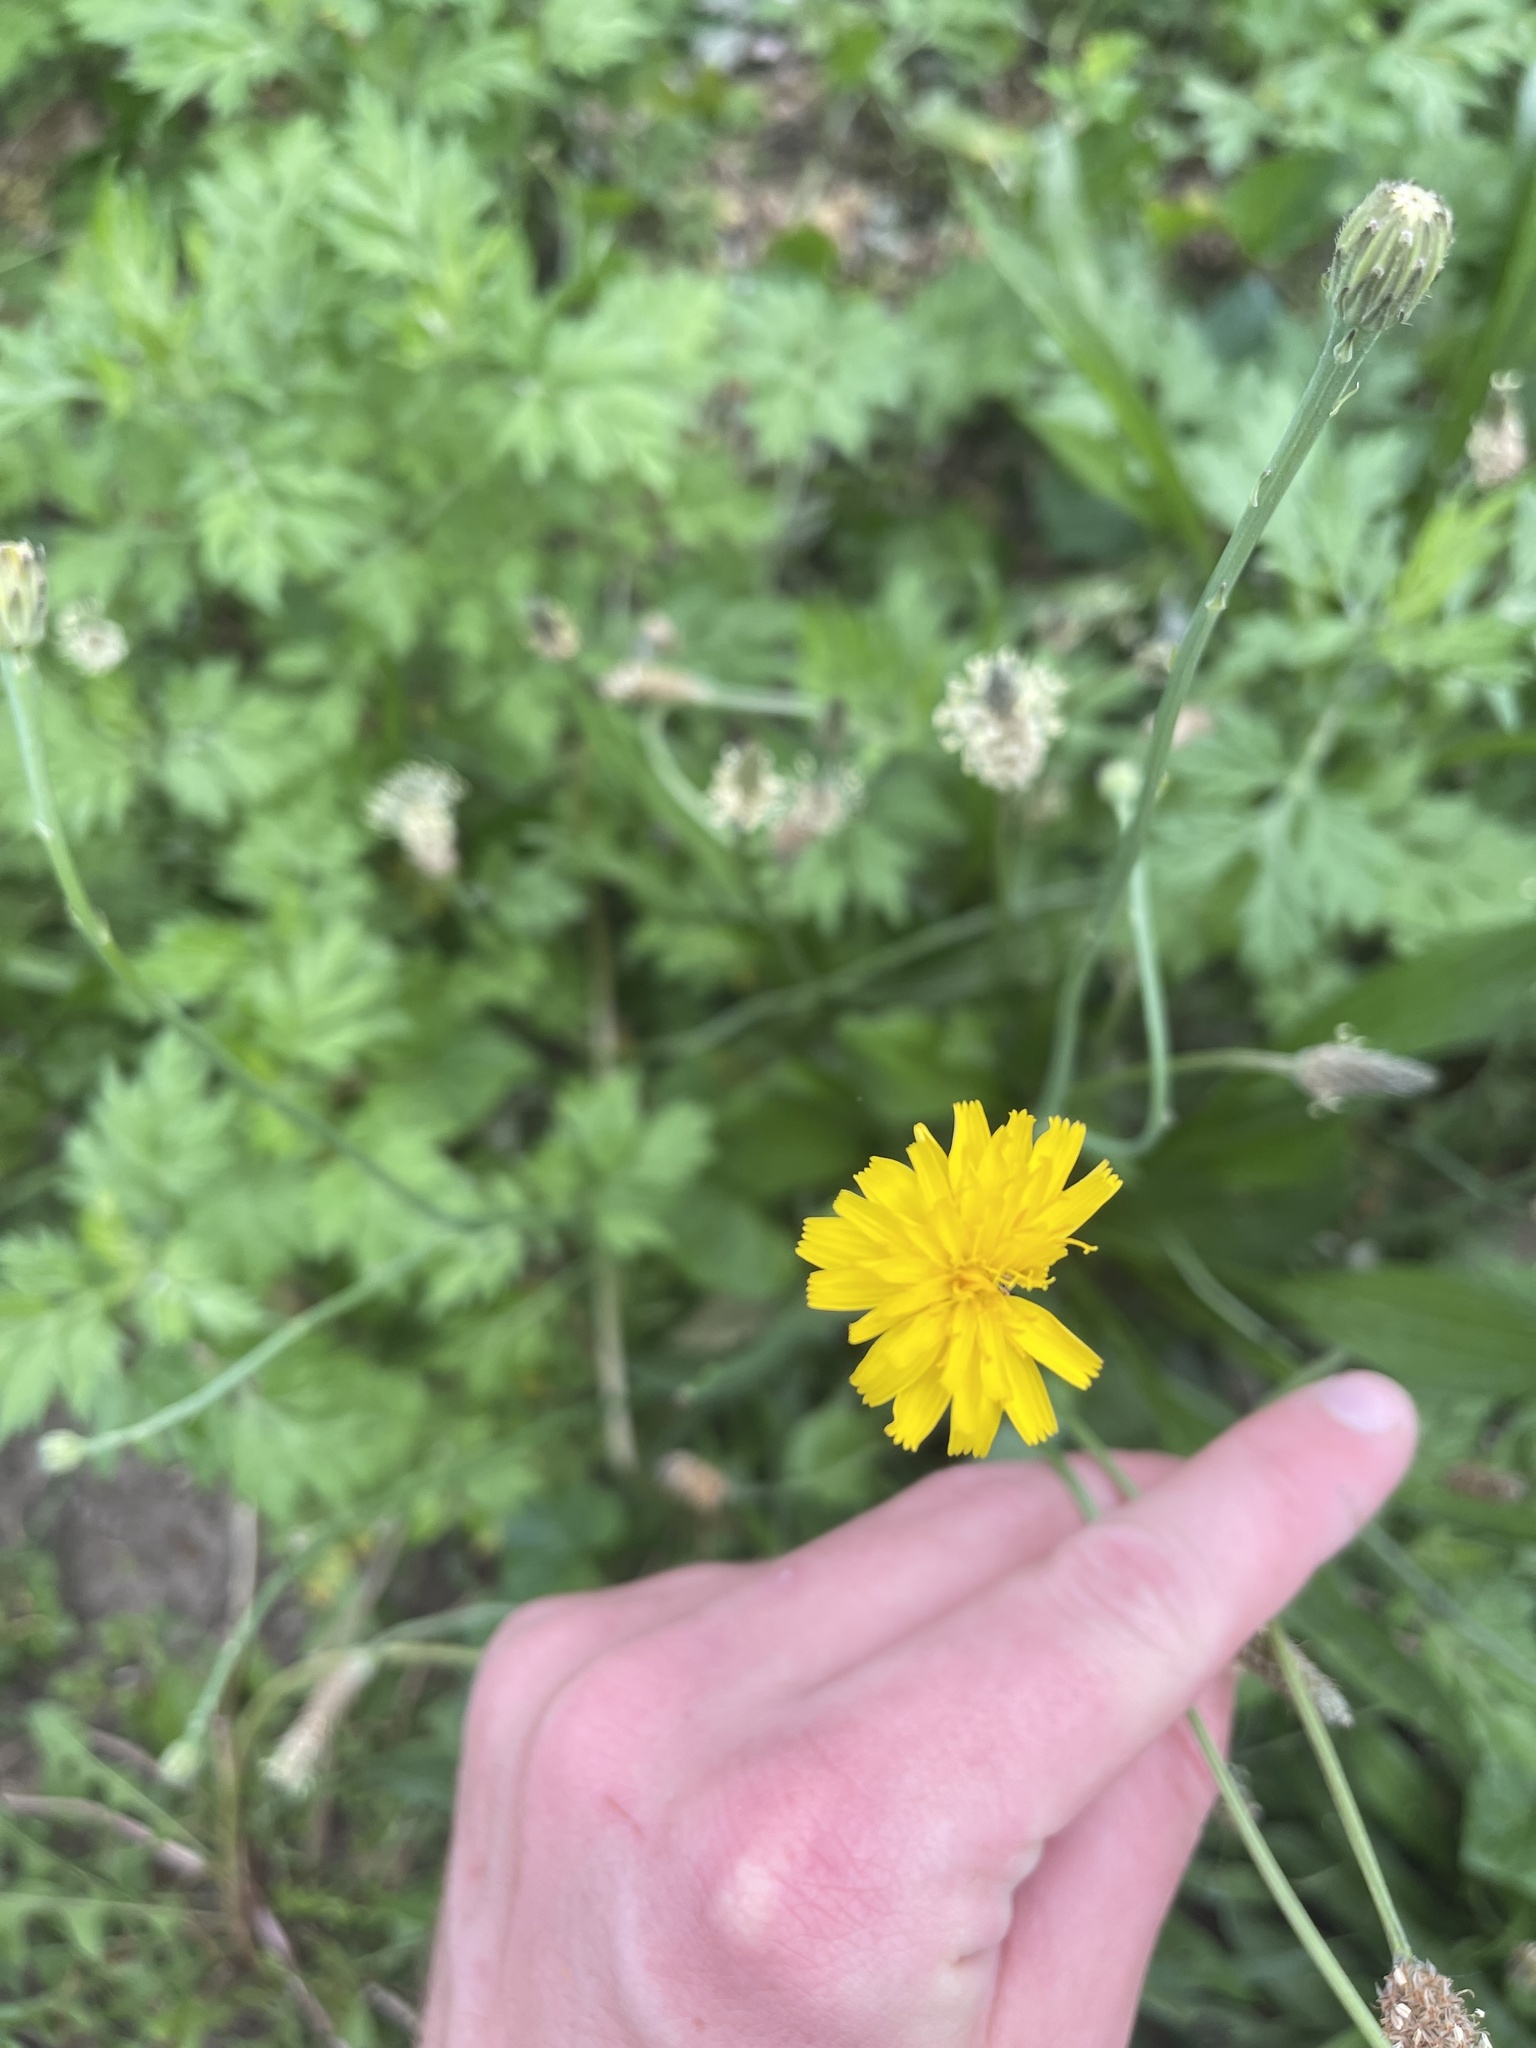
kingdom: Plantae
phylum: Tracheophyta
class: Magnoliopsida
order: Asterales
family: Asteraceae
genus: Hypochaeris
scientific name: Hypochaeris radicata
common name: Flatweed
